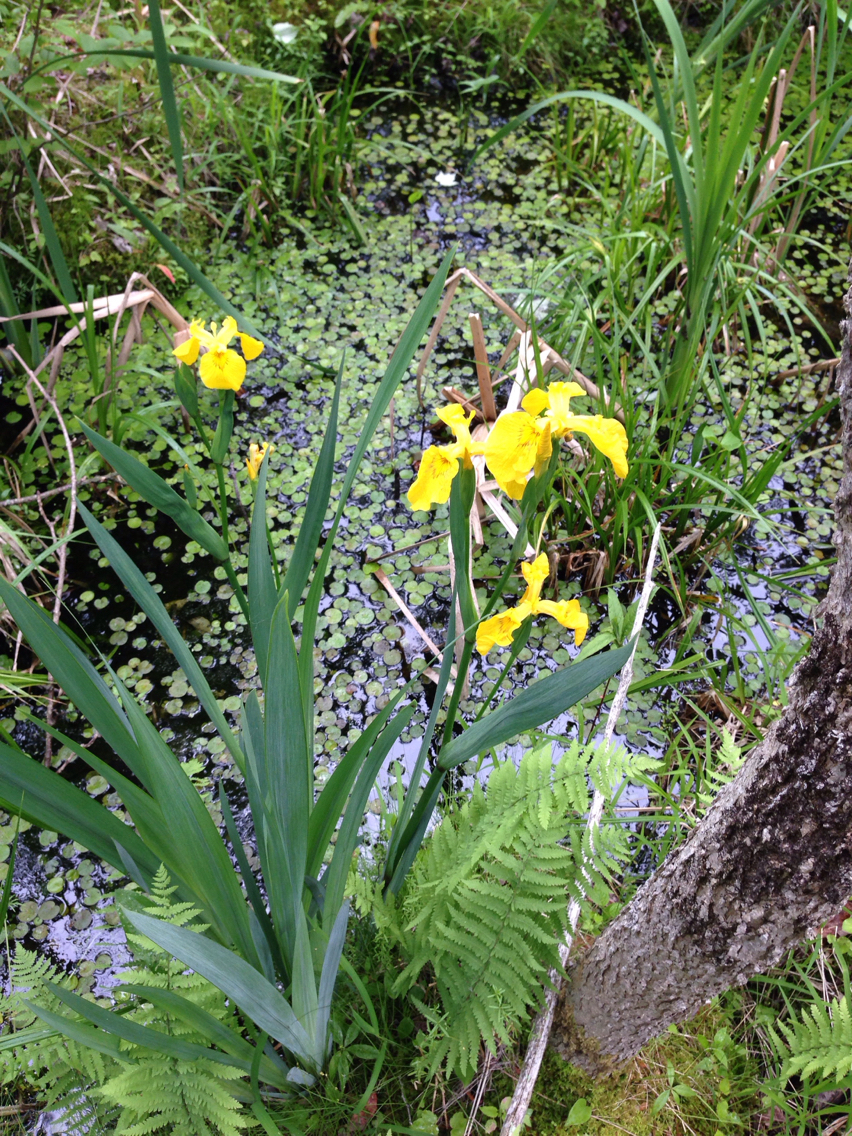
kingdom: Plantae
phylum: Tracheophyta
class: Liliopsida
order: Asparagales
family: Iridaceae
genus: Iris
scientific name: Iris pseudacorus
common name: Yellow flag
